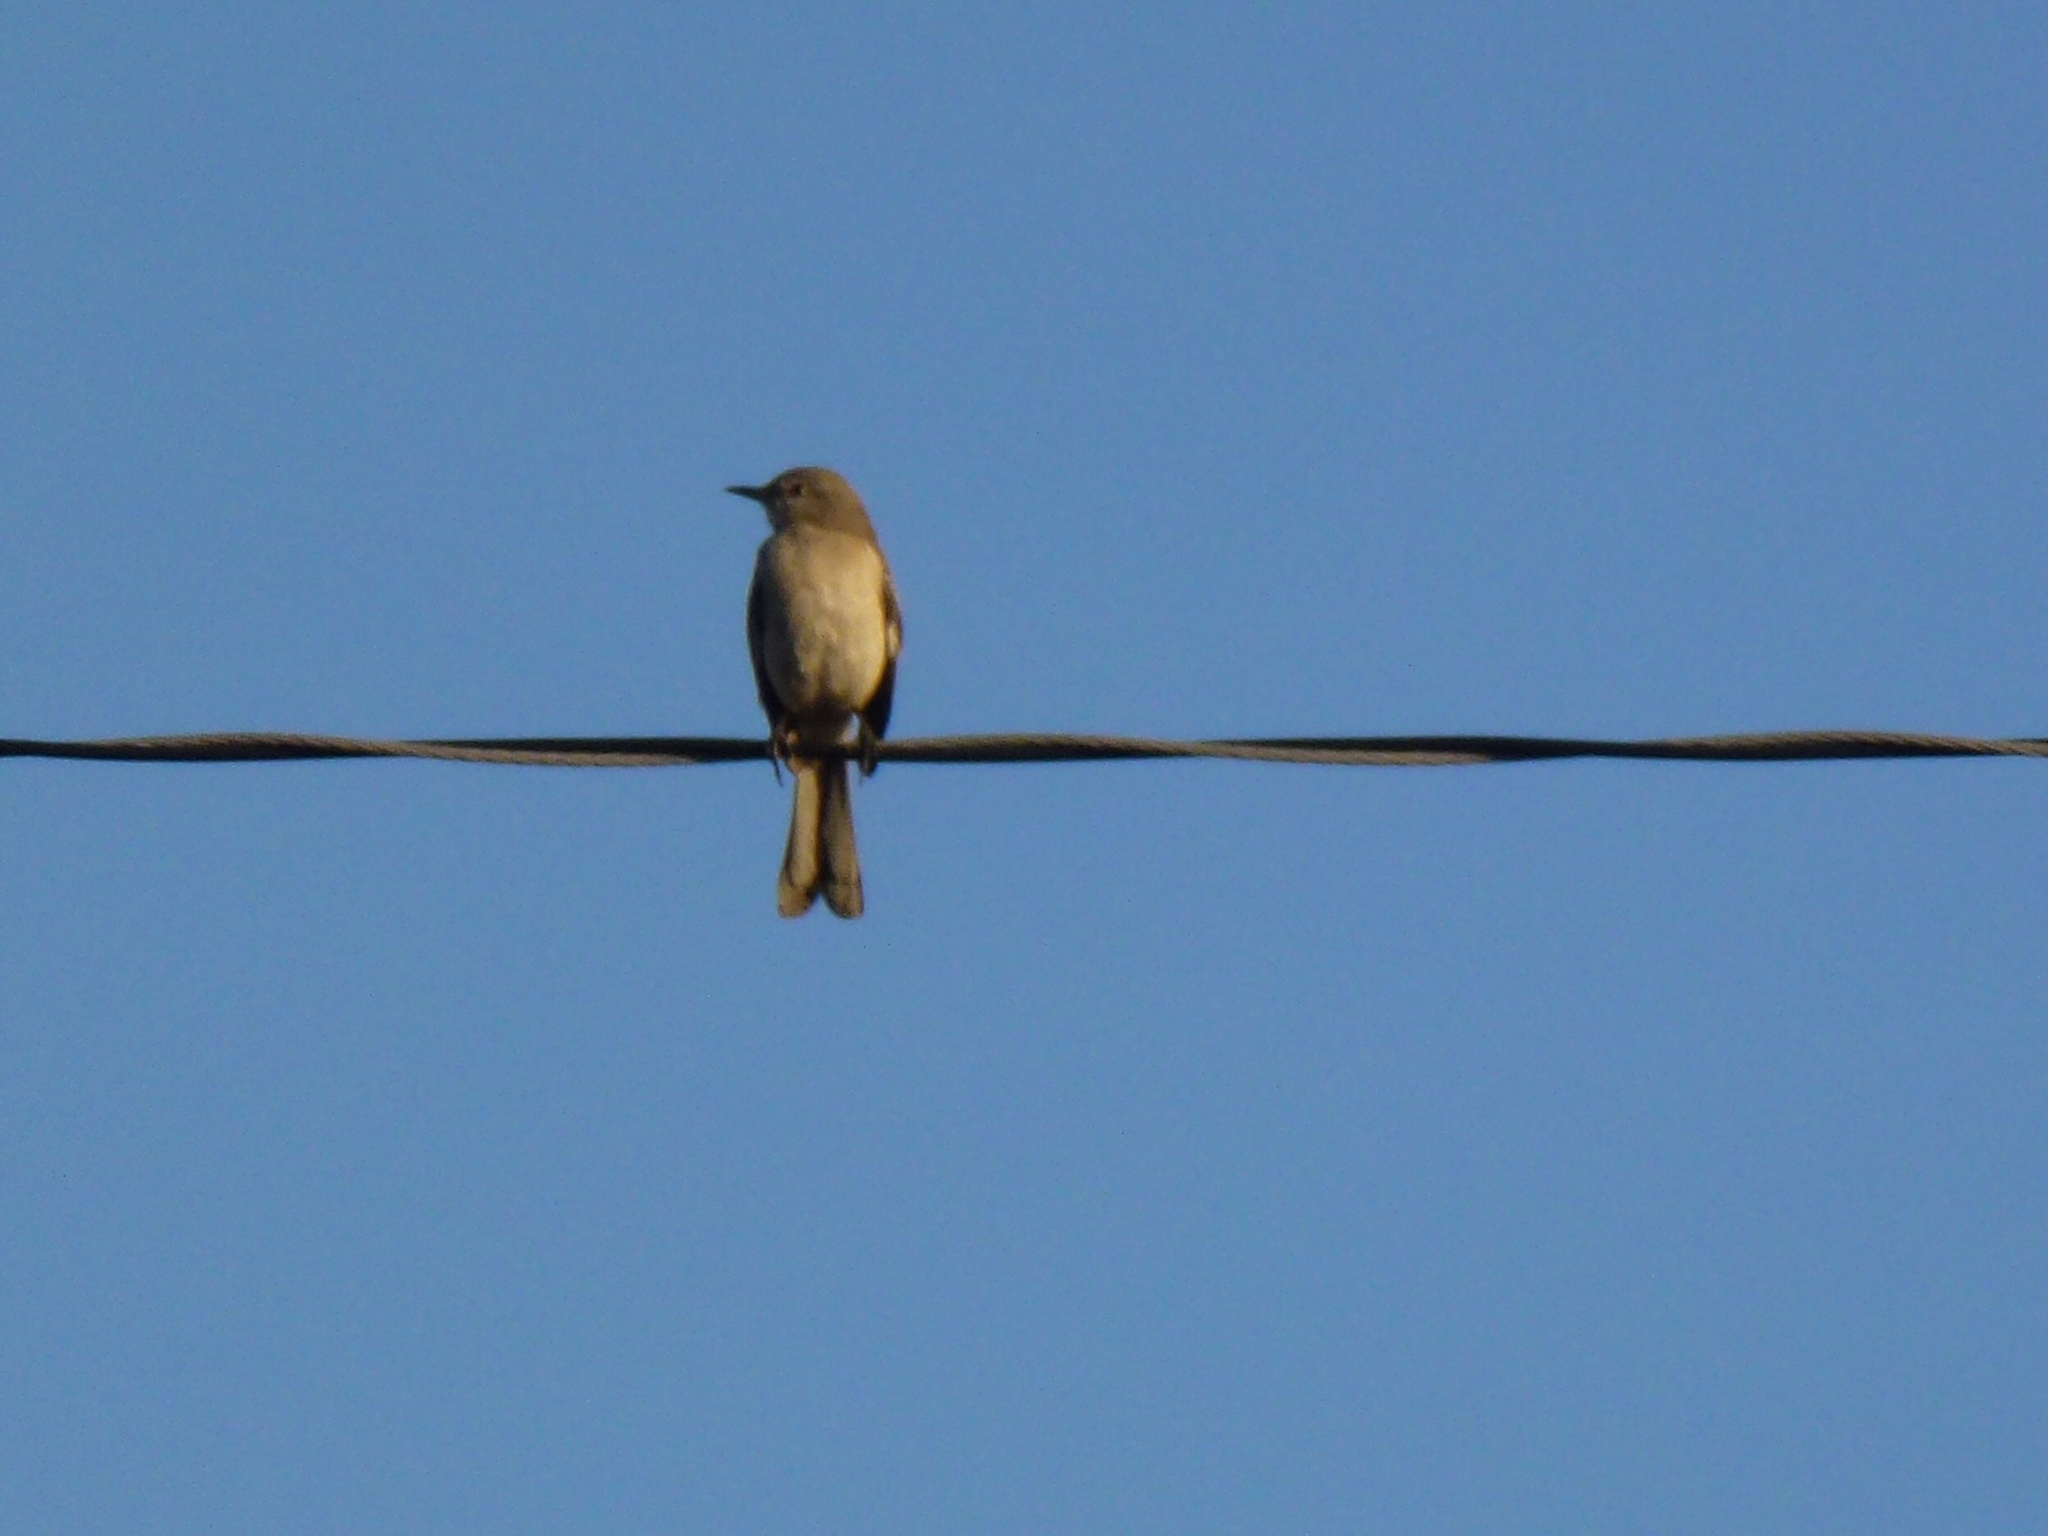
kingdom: Animalia
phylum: Chordata
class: Aves
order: Passeriformes
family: Mimidae
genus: Mimus
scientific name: Mimus polyglottos
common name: Northern mockingbird
